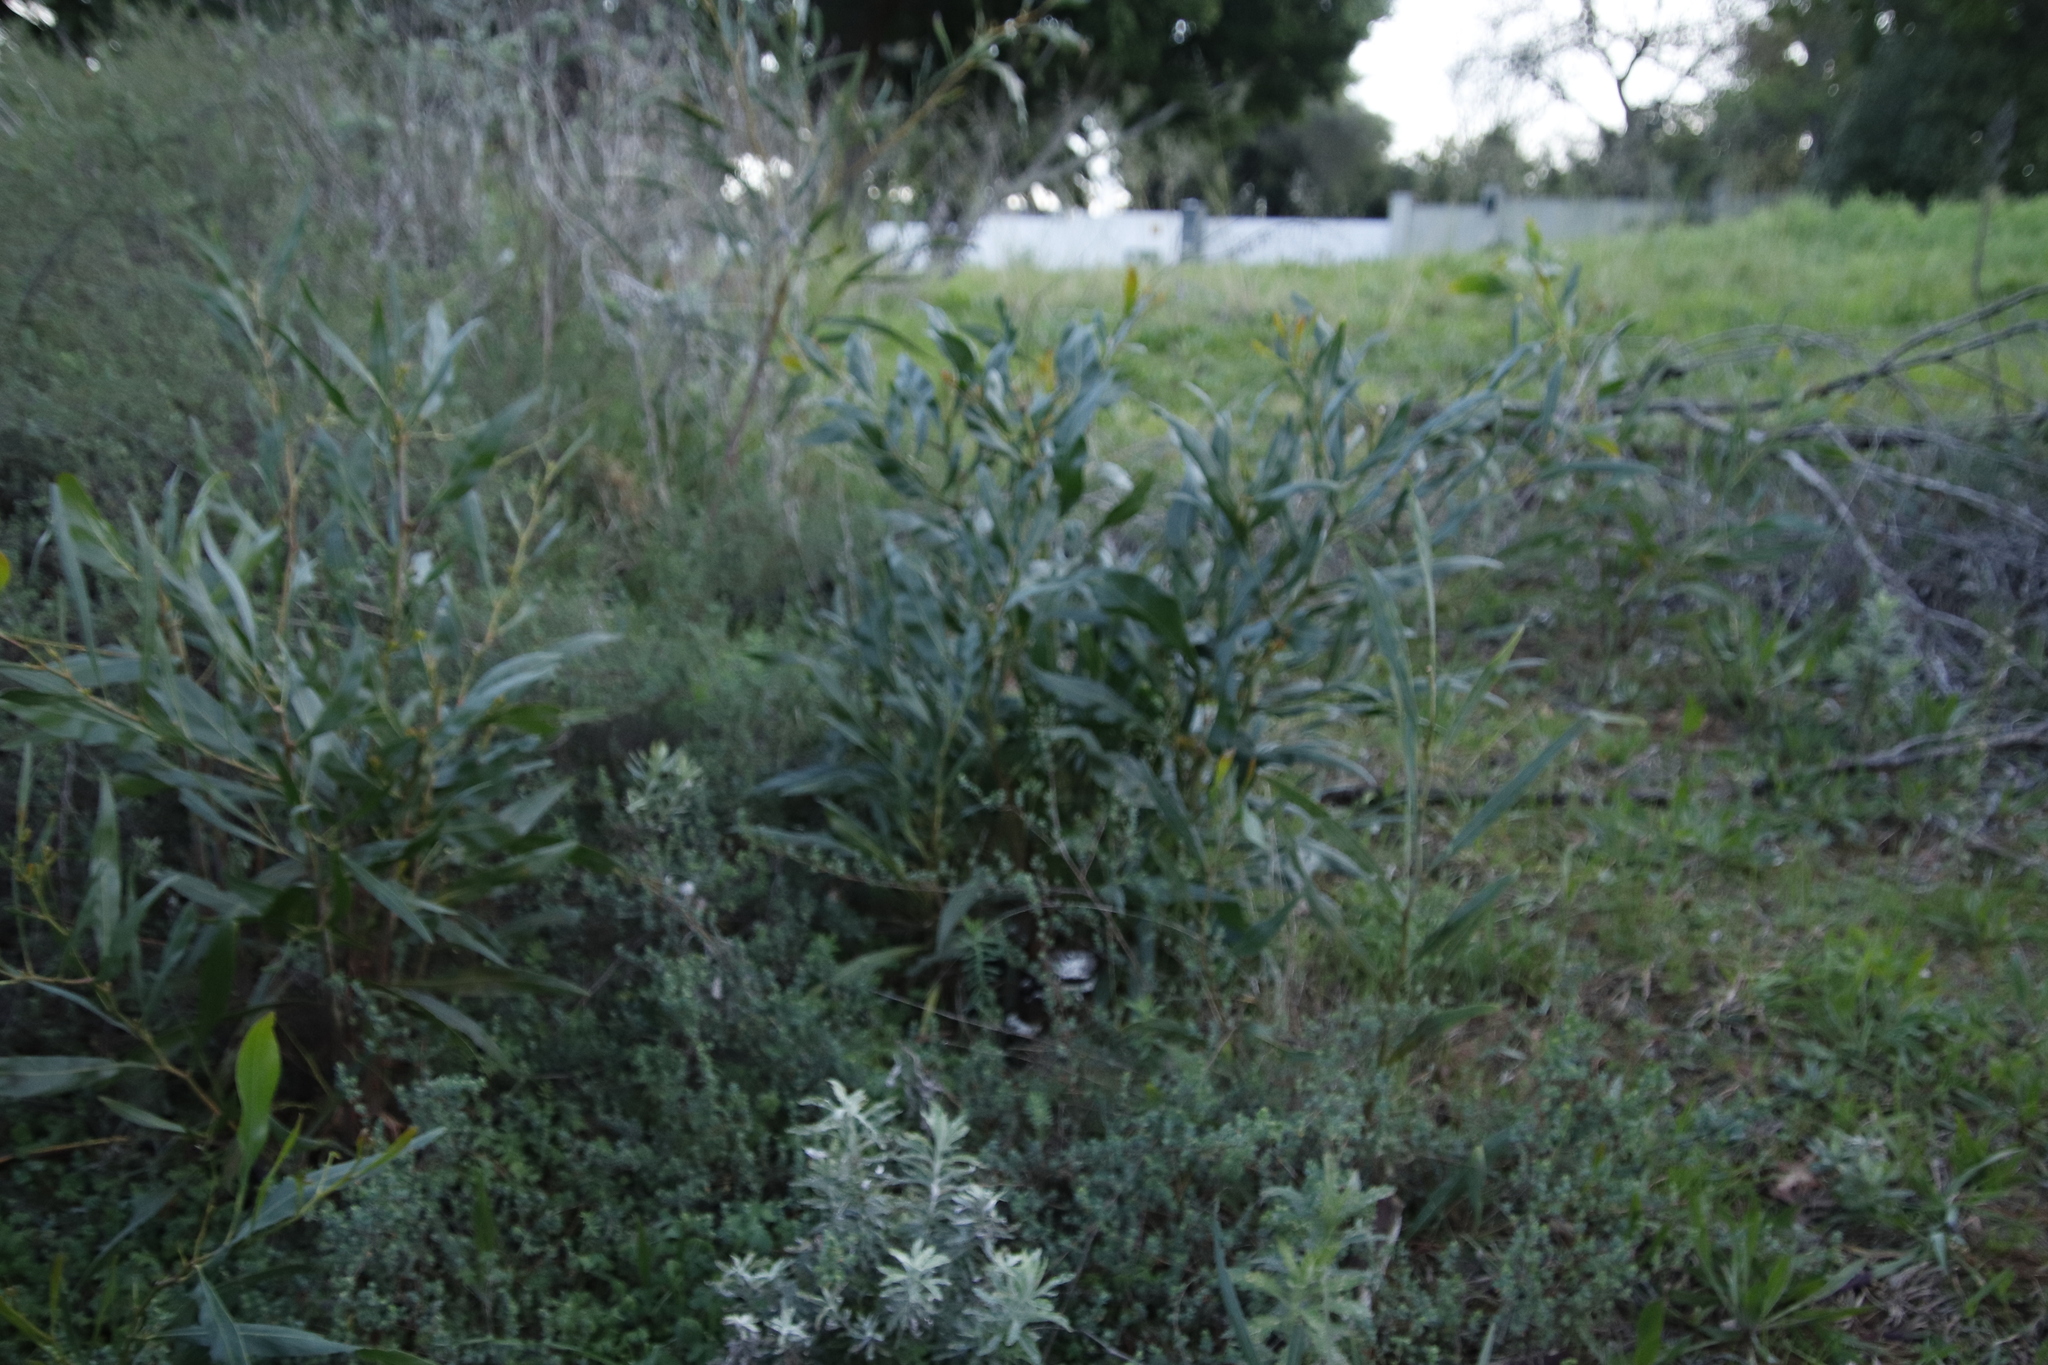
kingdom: Plantae
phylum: Tracheophyta
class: Magnoliopsida
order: Fabales
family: Fabaceae
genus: Acacia
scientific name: Acacia saligna
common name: Orange wattle
